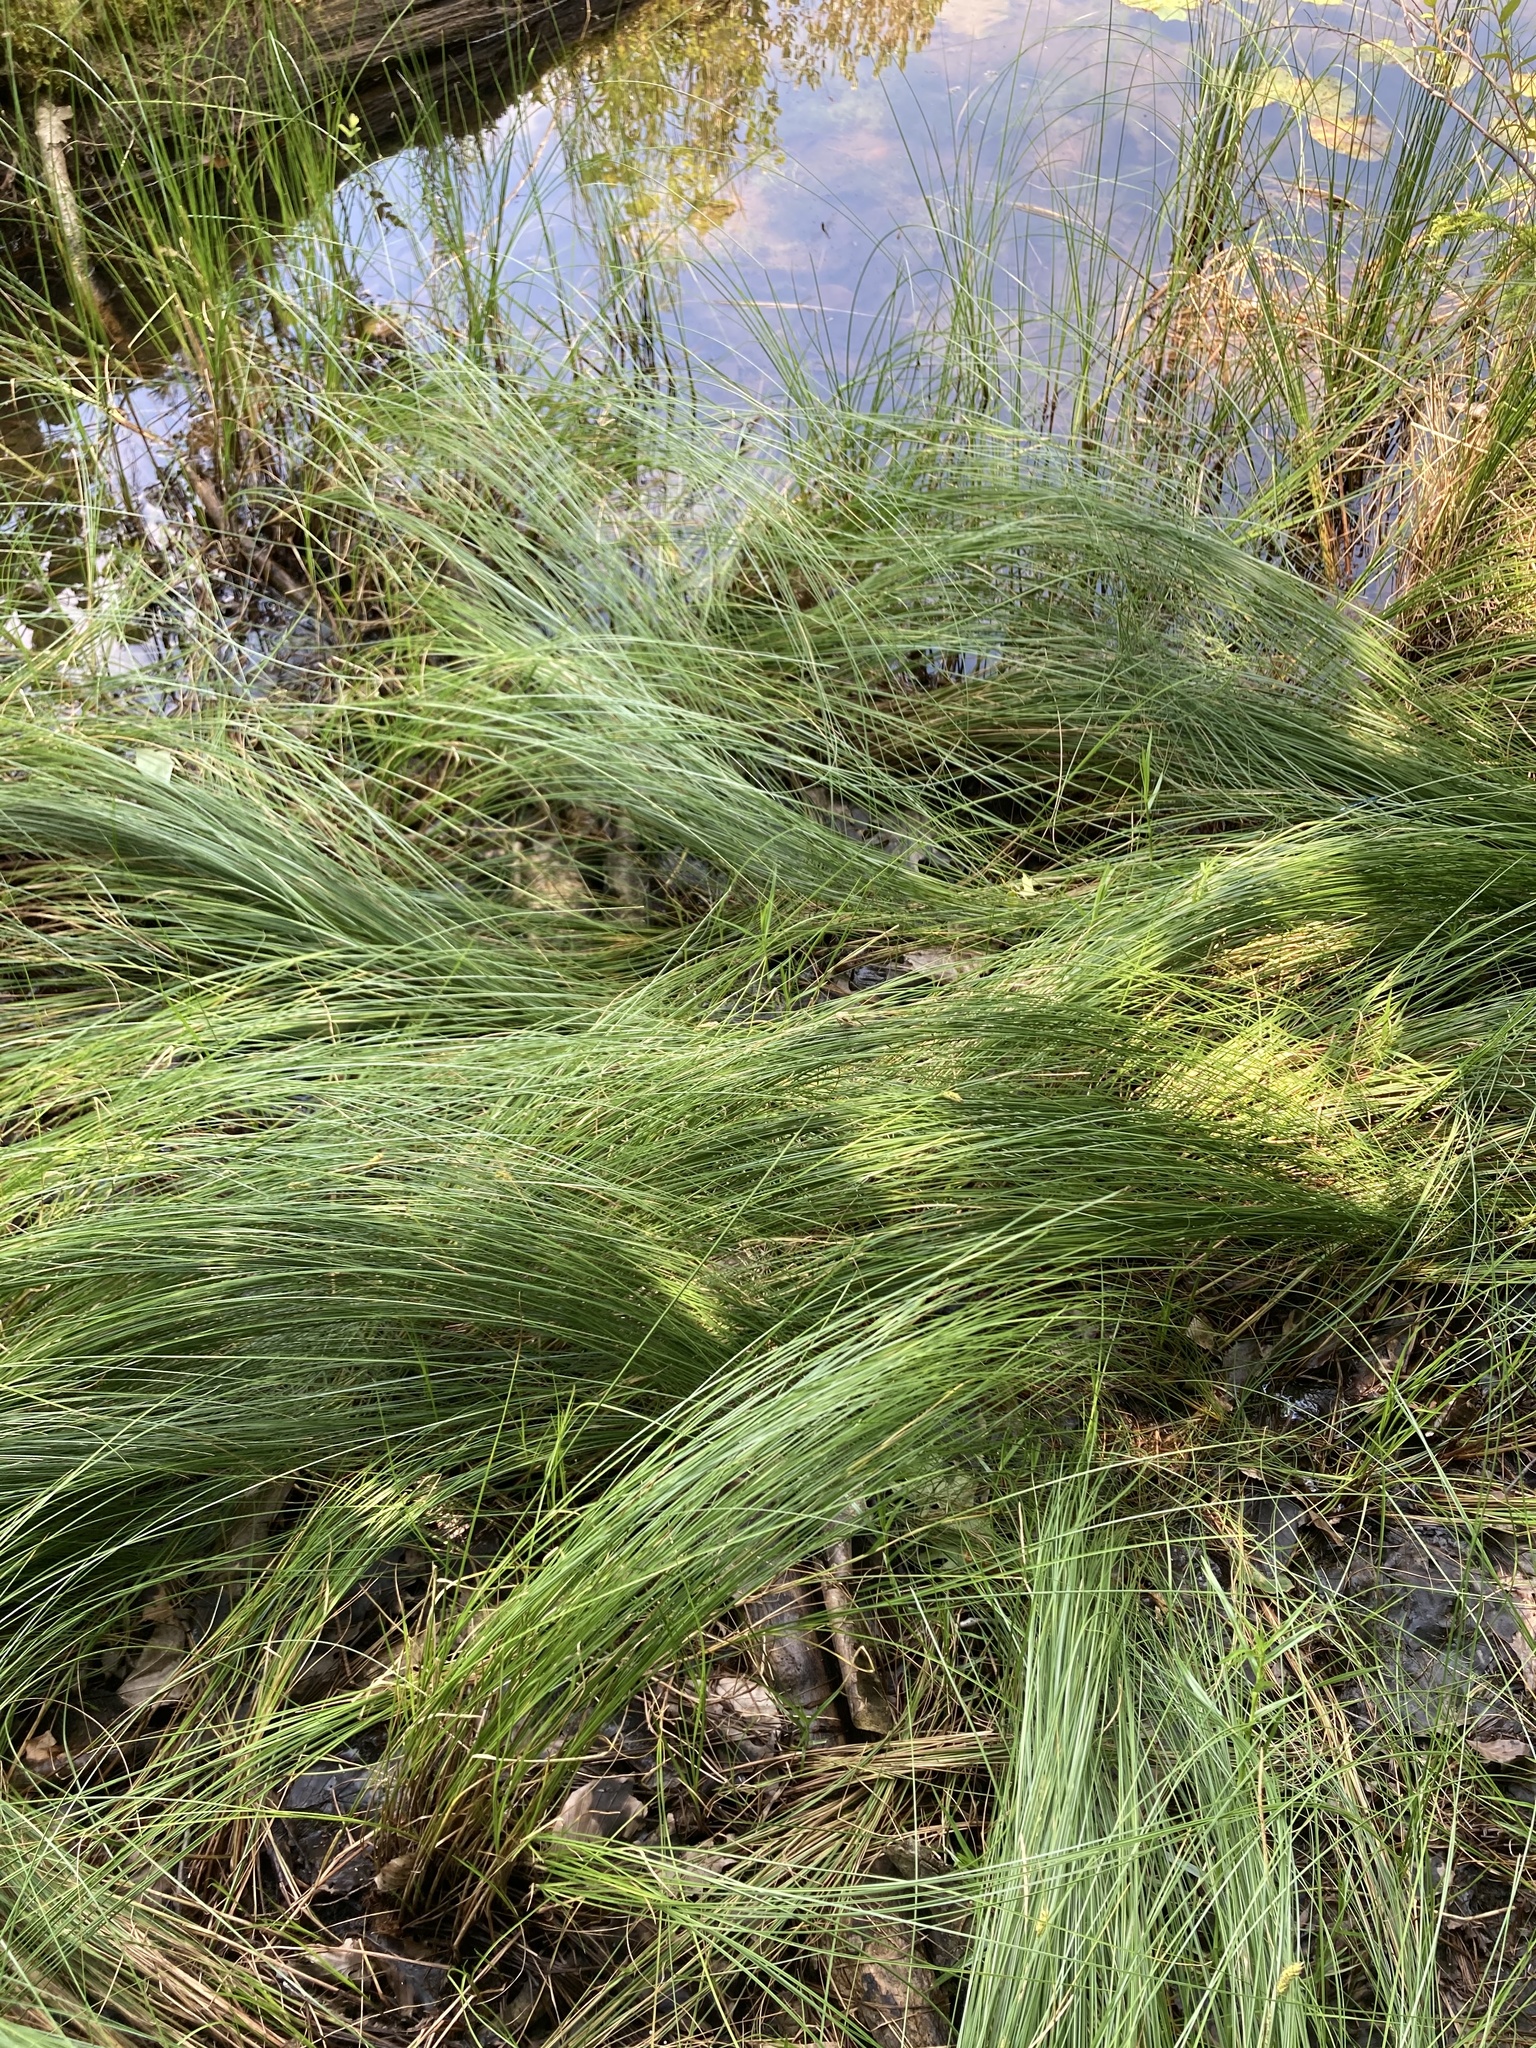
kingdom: Plantae
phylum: Tracheophyta
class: Liliopsida
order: Poales
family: Cyperaceae
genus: Carex
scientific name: Carex lasiocarpa
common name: Slender sedge
